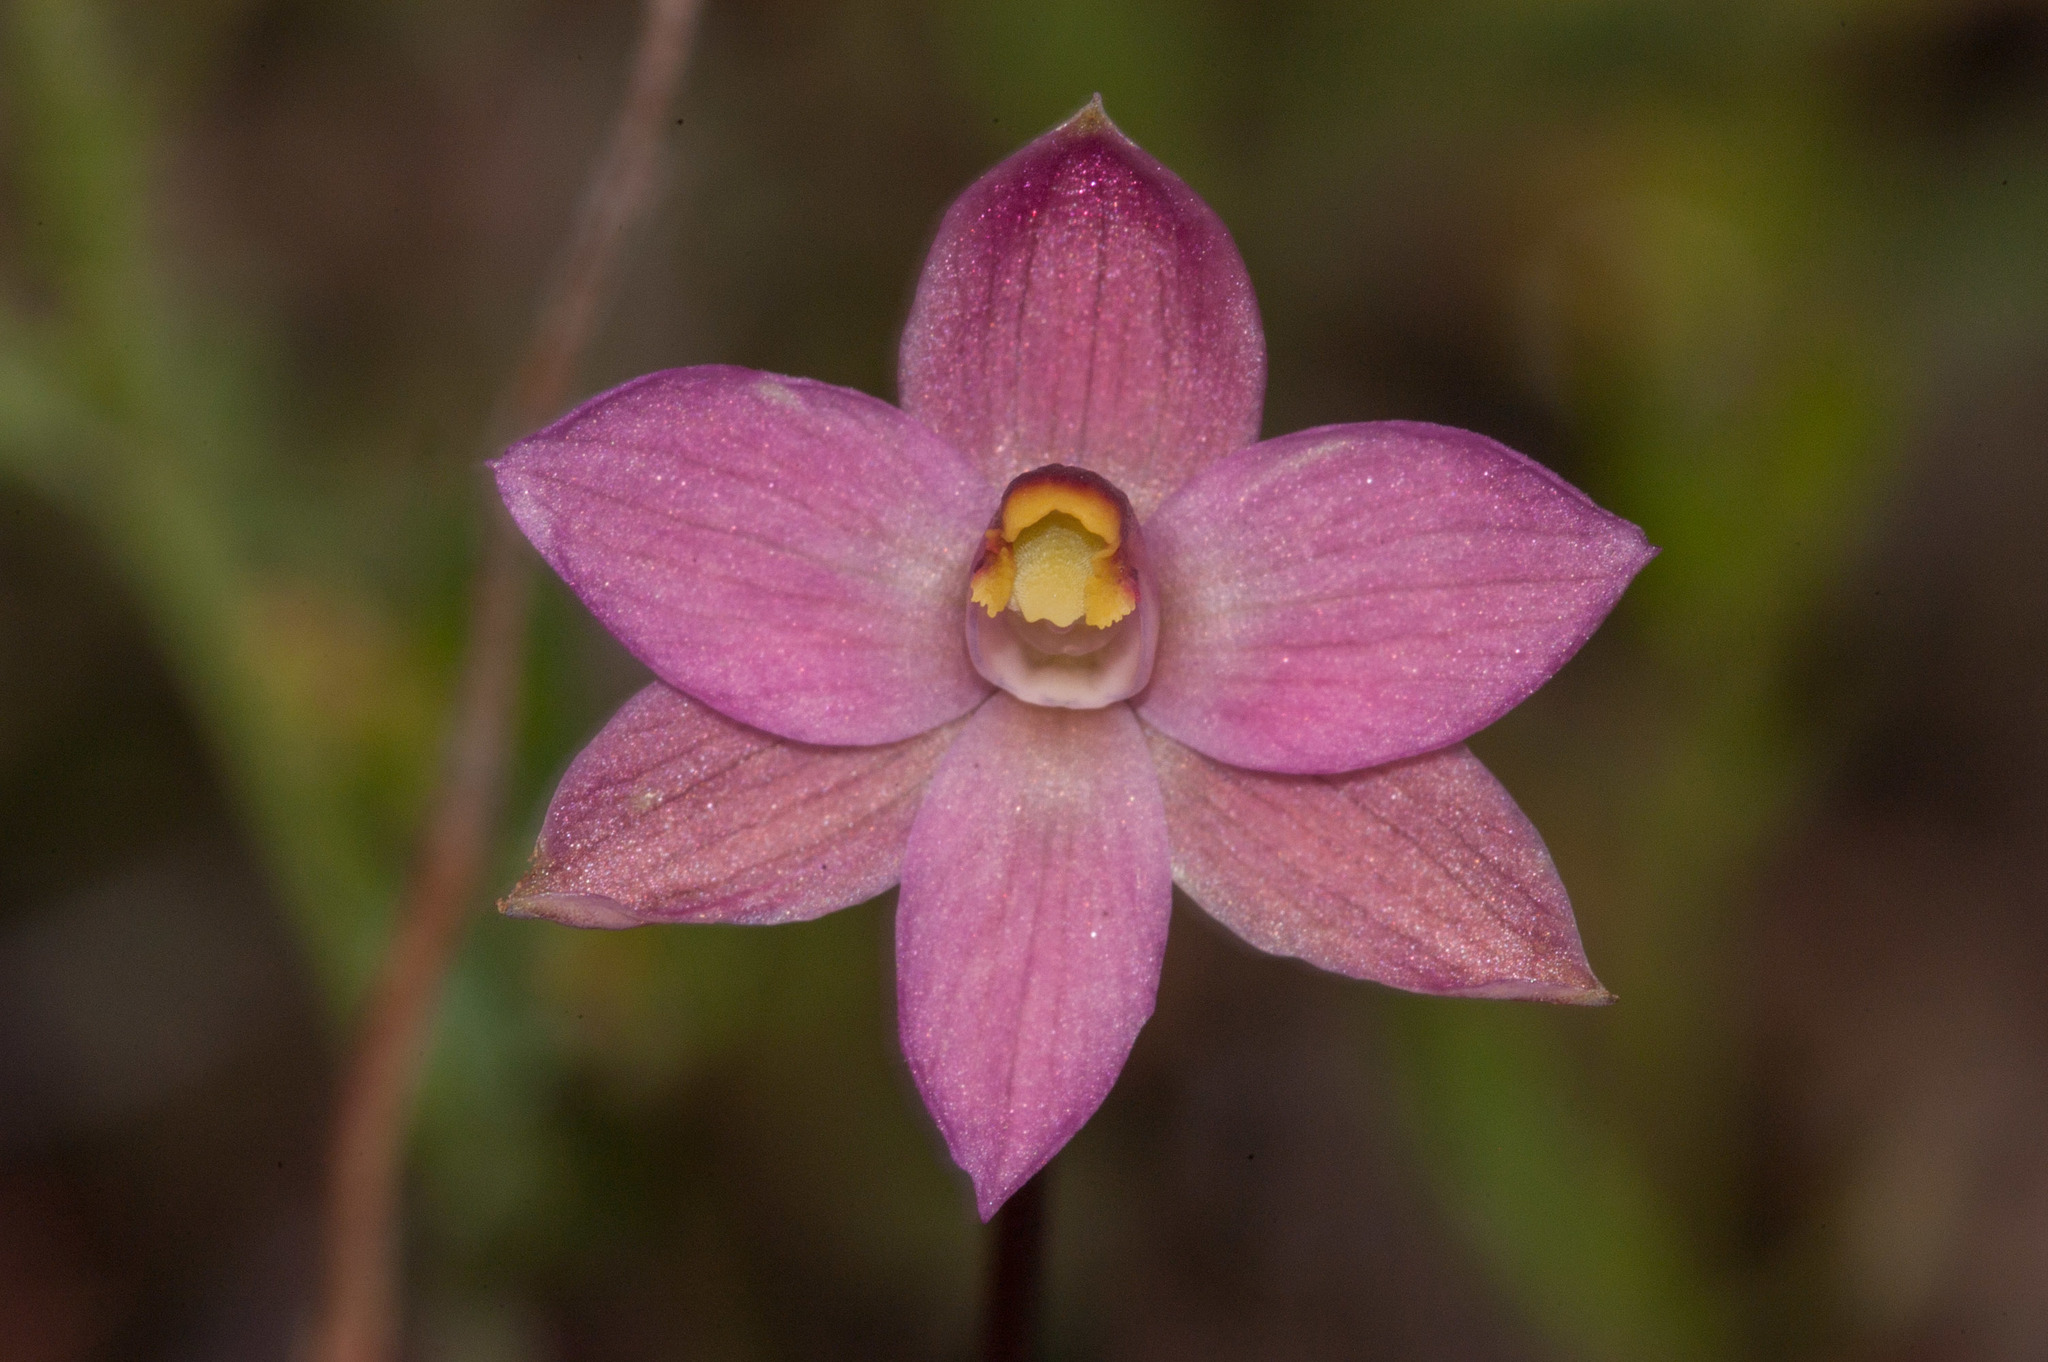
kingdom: Plantae
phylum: Tracheophyta
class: Liliopsida
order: Asparagales
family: Orchidaceae
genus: Thelymitra
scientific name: Thelymitra rubra
